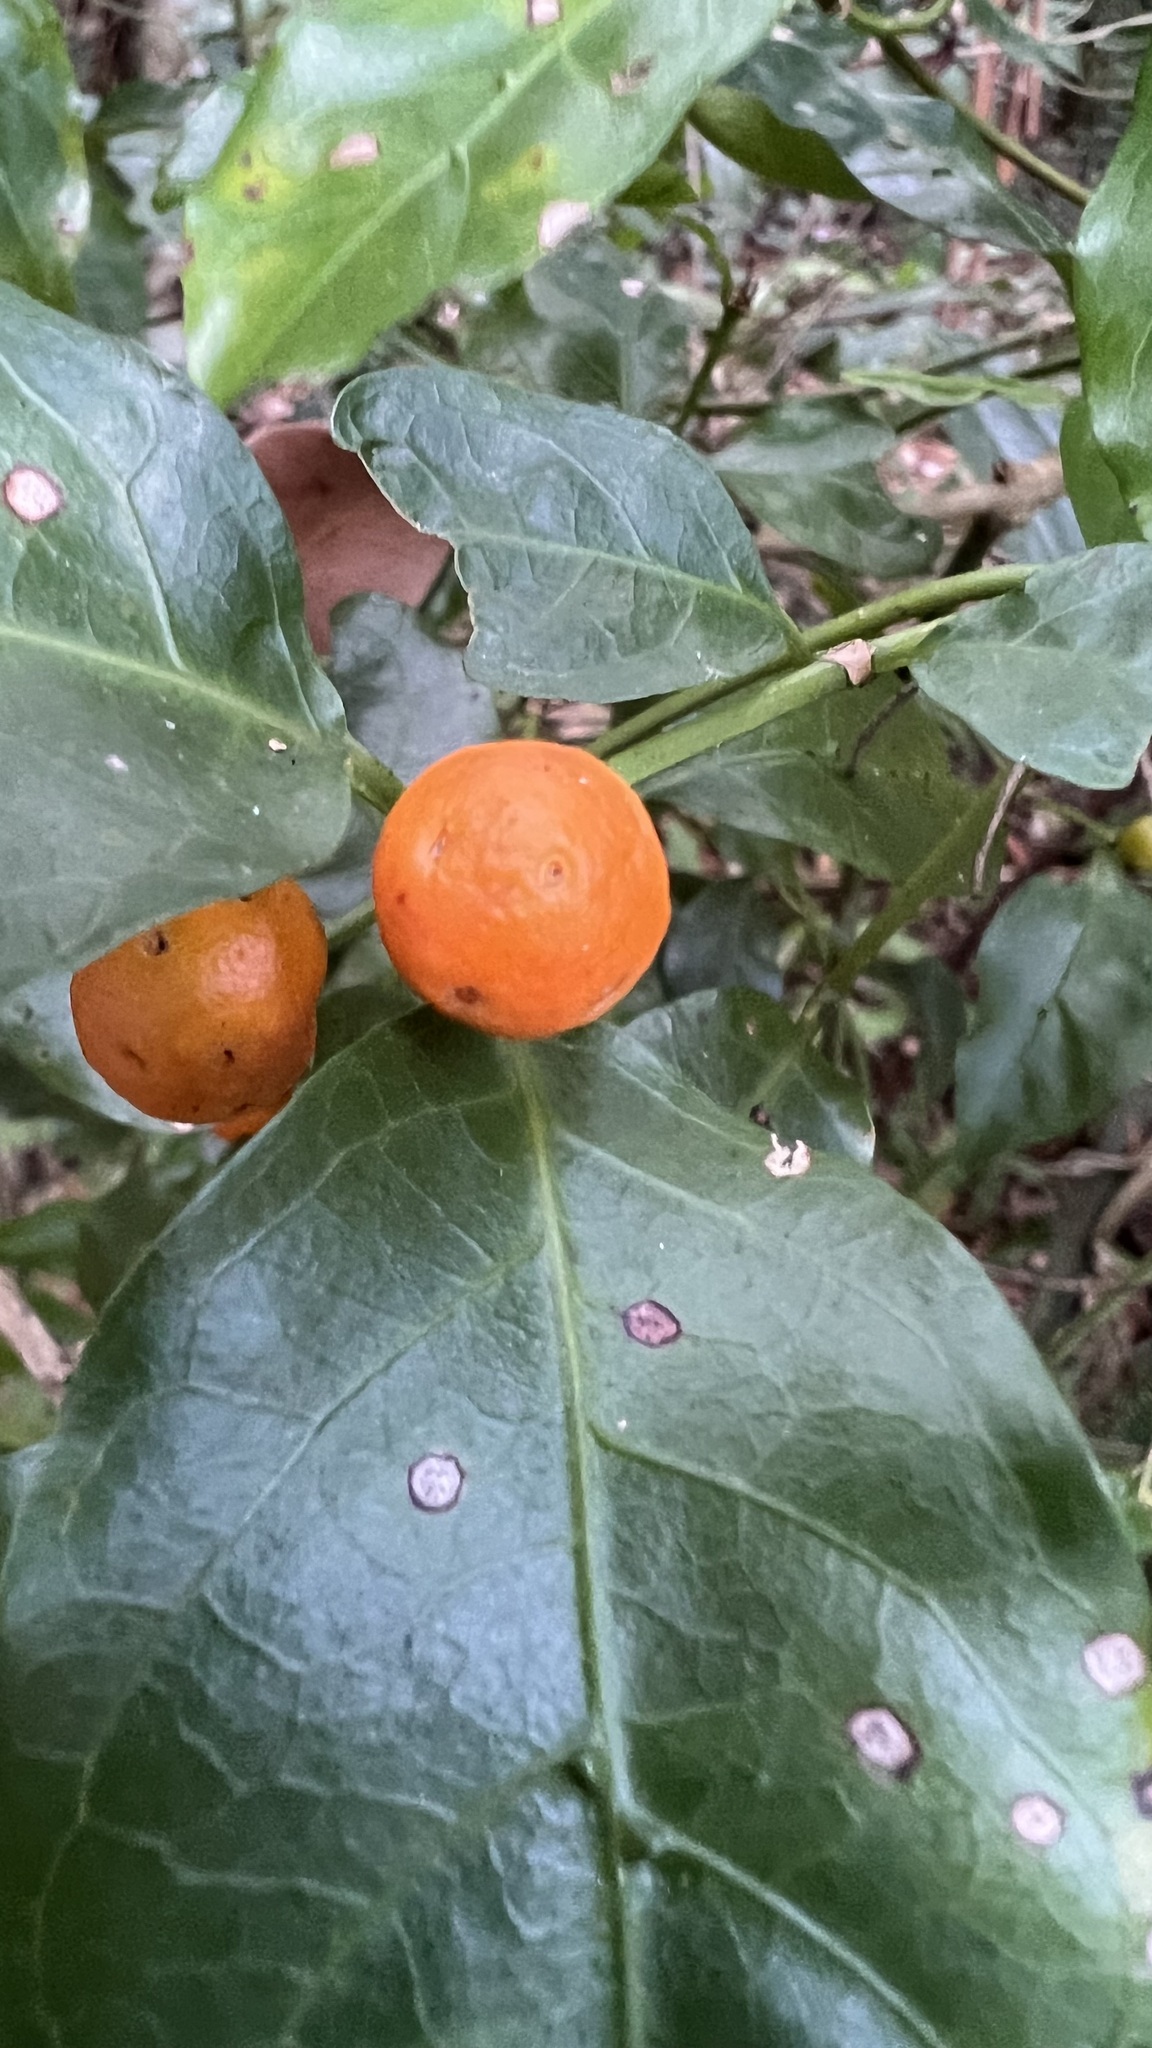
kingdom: Plantae
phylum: Tracheophyta
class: Magnoliopsida
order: Gentianales
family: Rubiaceae
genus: Gynochthodes
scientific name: Gynochthodes jasminoides
